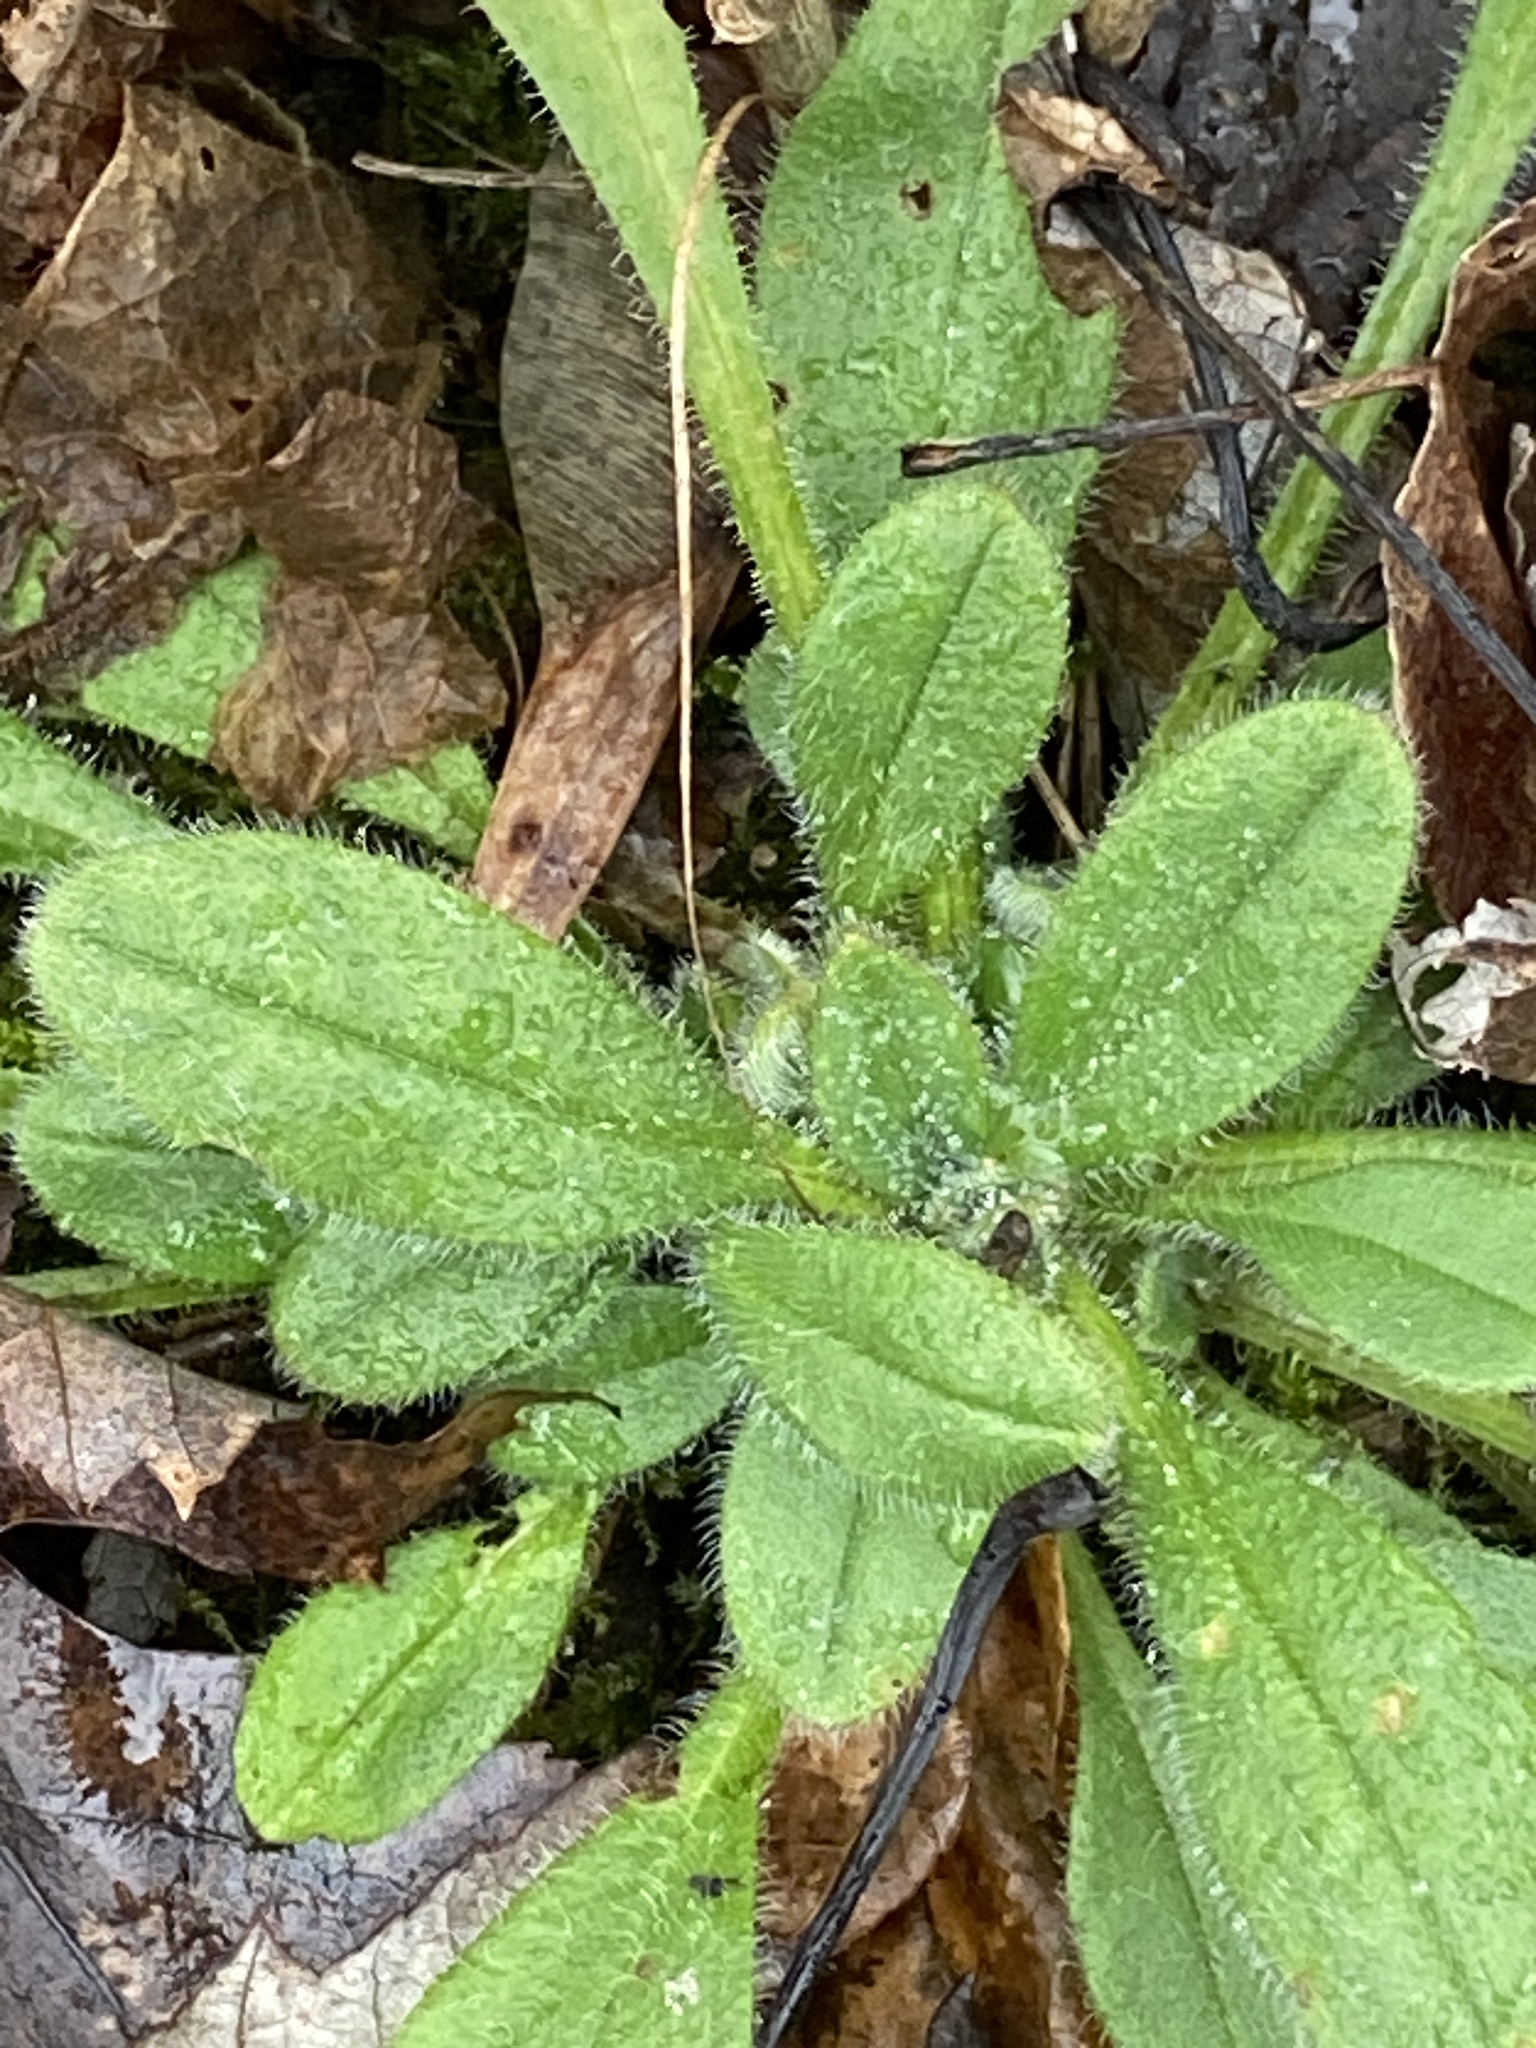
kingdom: Plantae
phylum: Tracheophyta
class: Magnoliopsida
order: Asterales
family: Asteraceae
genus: Rudbeckia
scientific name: Rudbeckia hirta
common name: Black-eyed-susan
